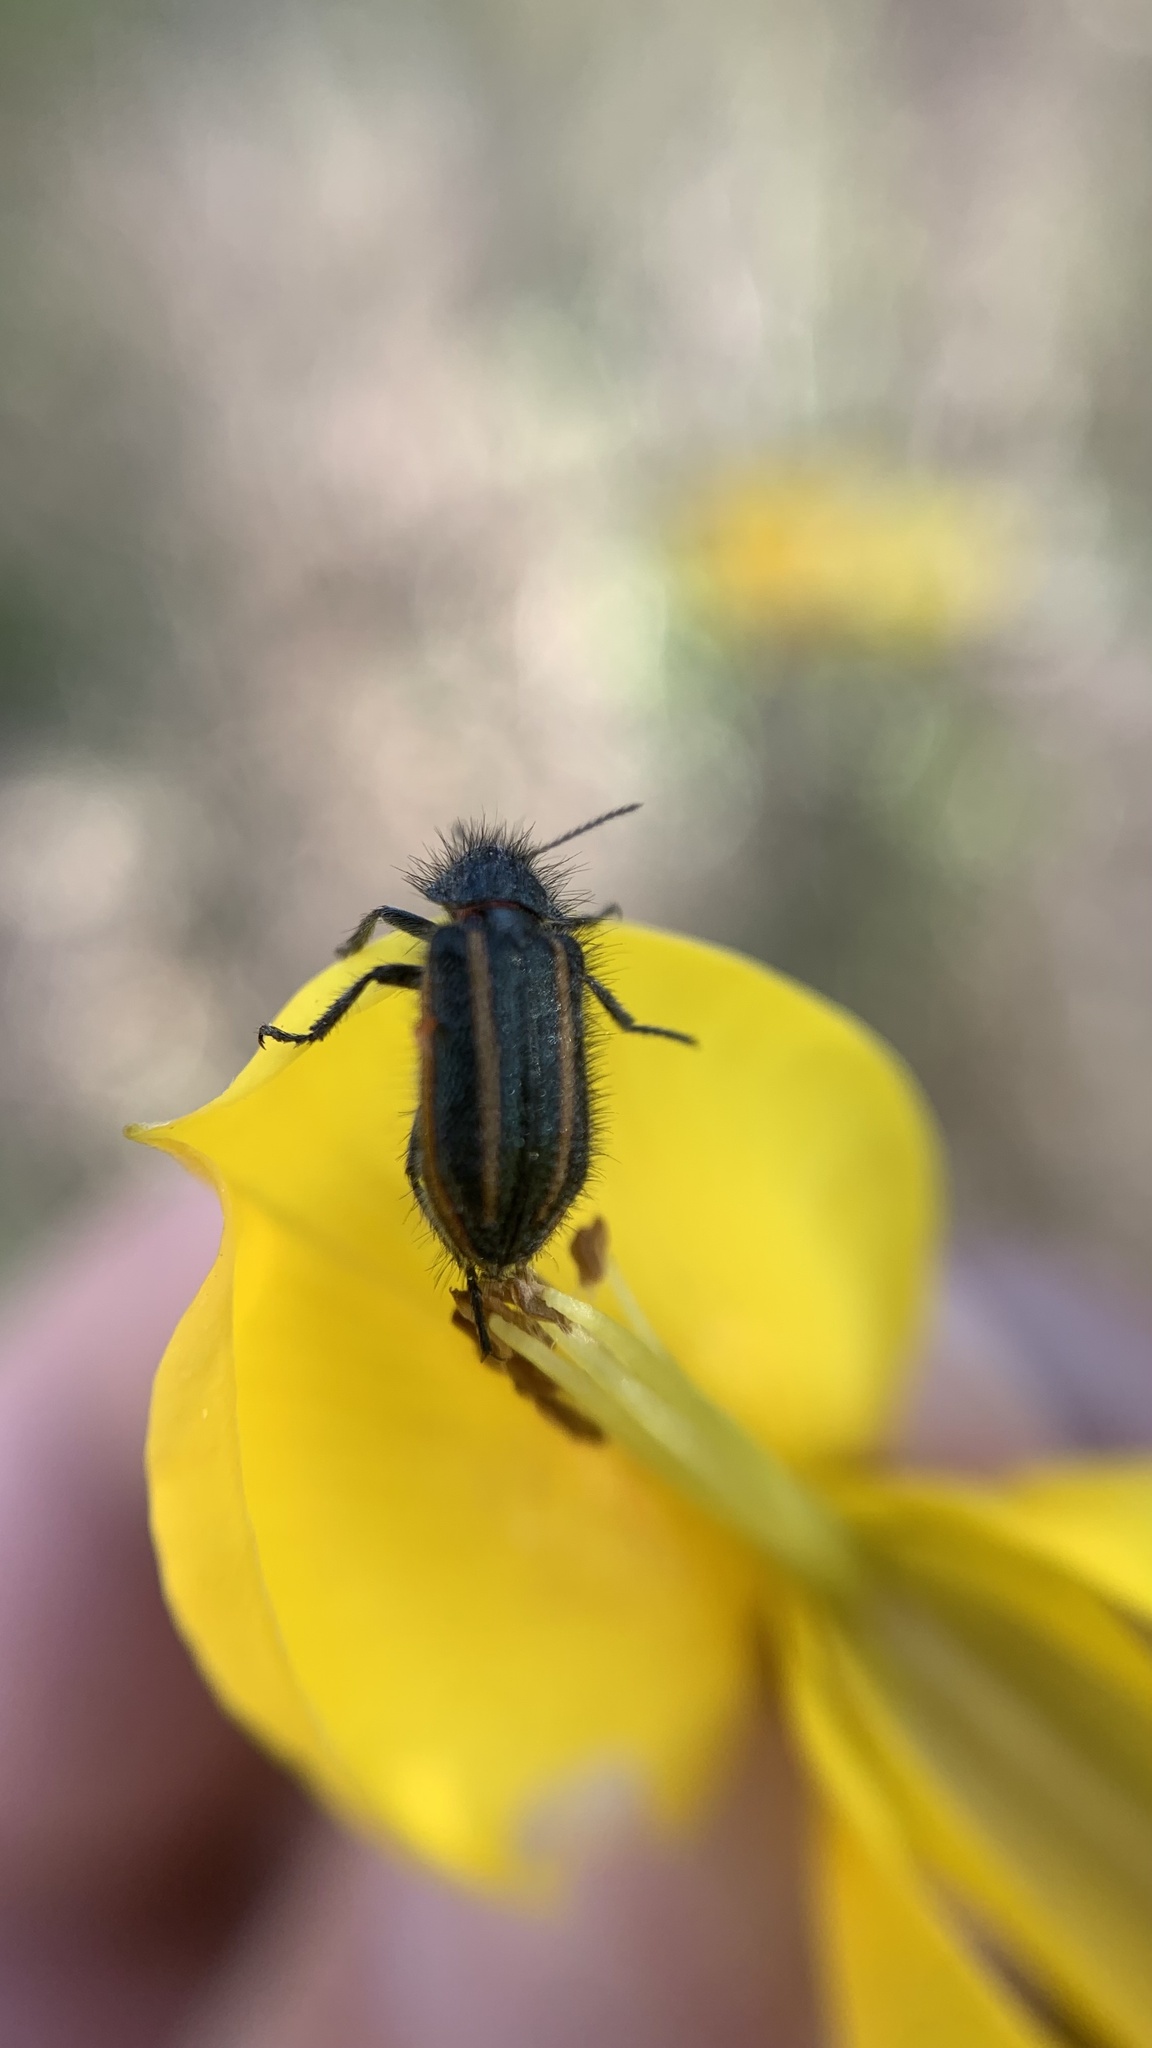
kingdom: Animalia
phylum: Arthropoda
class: Insecta
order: Coleoptera
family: Melyridae
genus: Astylus
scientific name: Astylus
